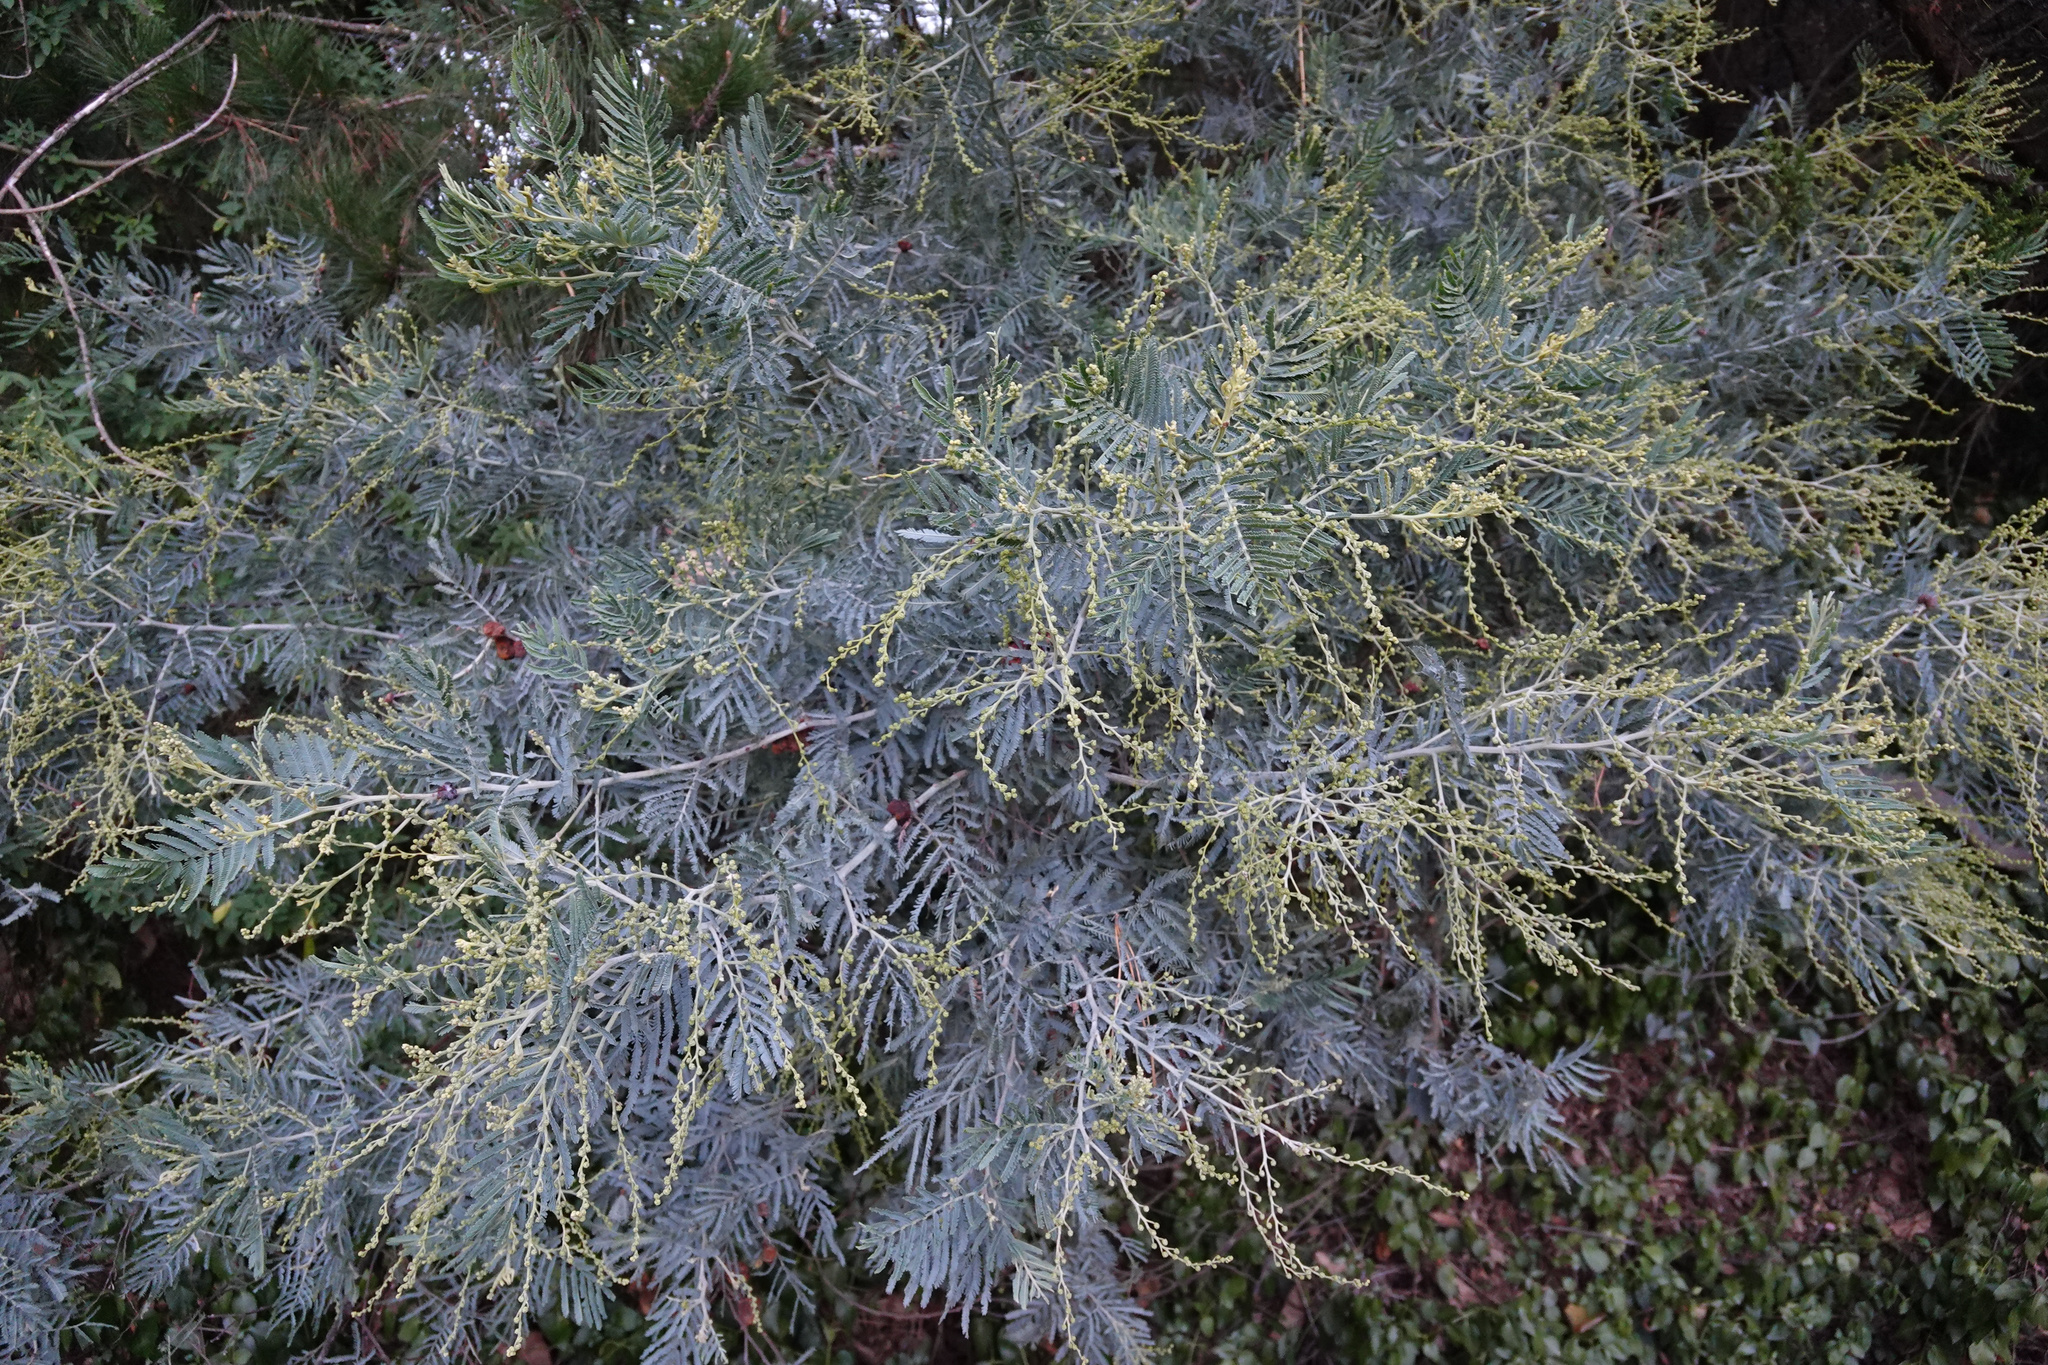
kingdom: Plantae
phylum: Tracheophyta
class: Magnoliopsida
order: Fabales
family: Fabaceae
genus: Acacia
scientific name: Acacia baileyana
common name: Cootamundra wattle
